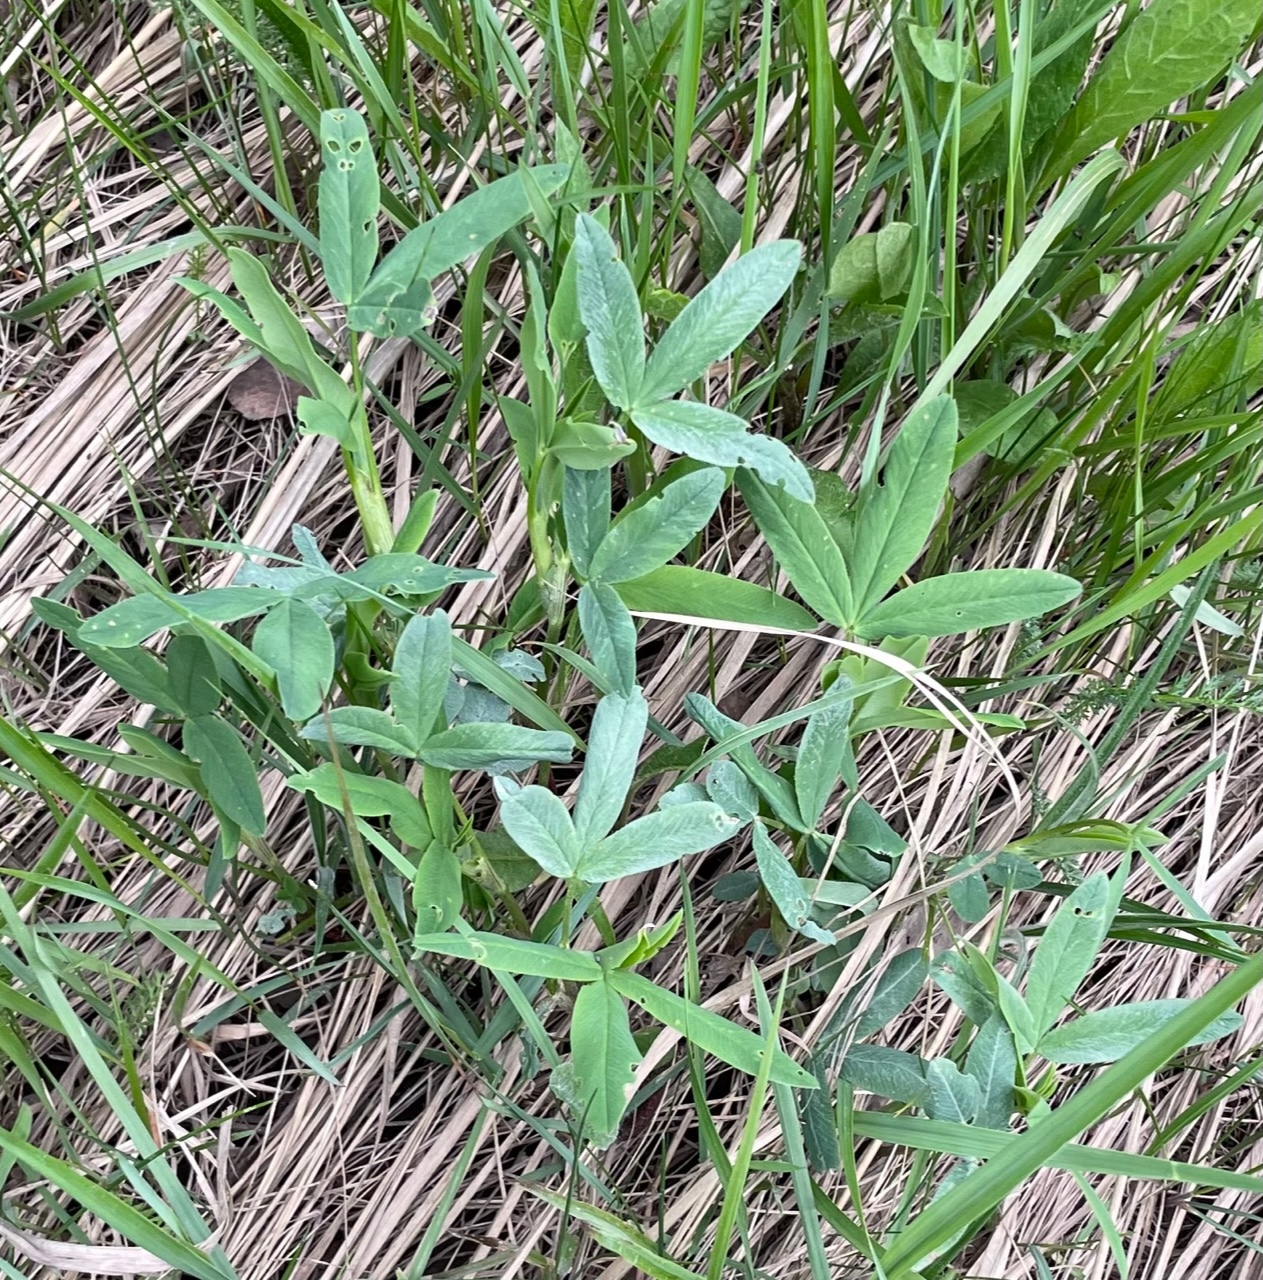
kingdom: Plantae
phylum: Tracheophyta
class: Magnoliopsida
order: Fabales
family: Fabaceae
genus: Trifolium
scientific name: Trifolium medium
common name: Zigzag clover
